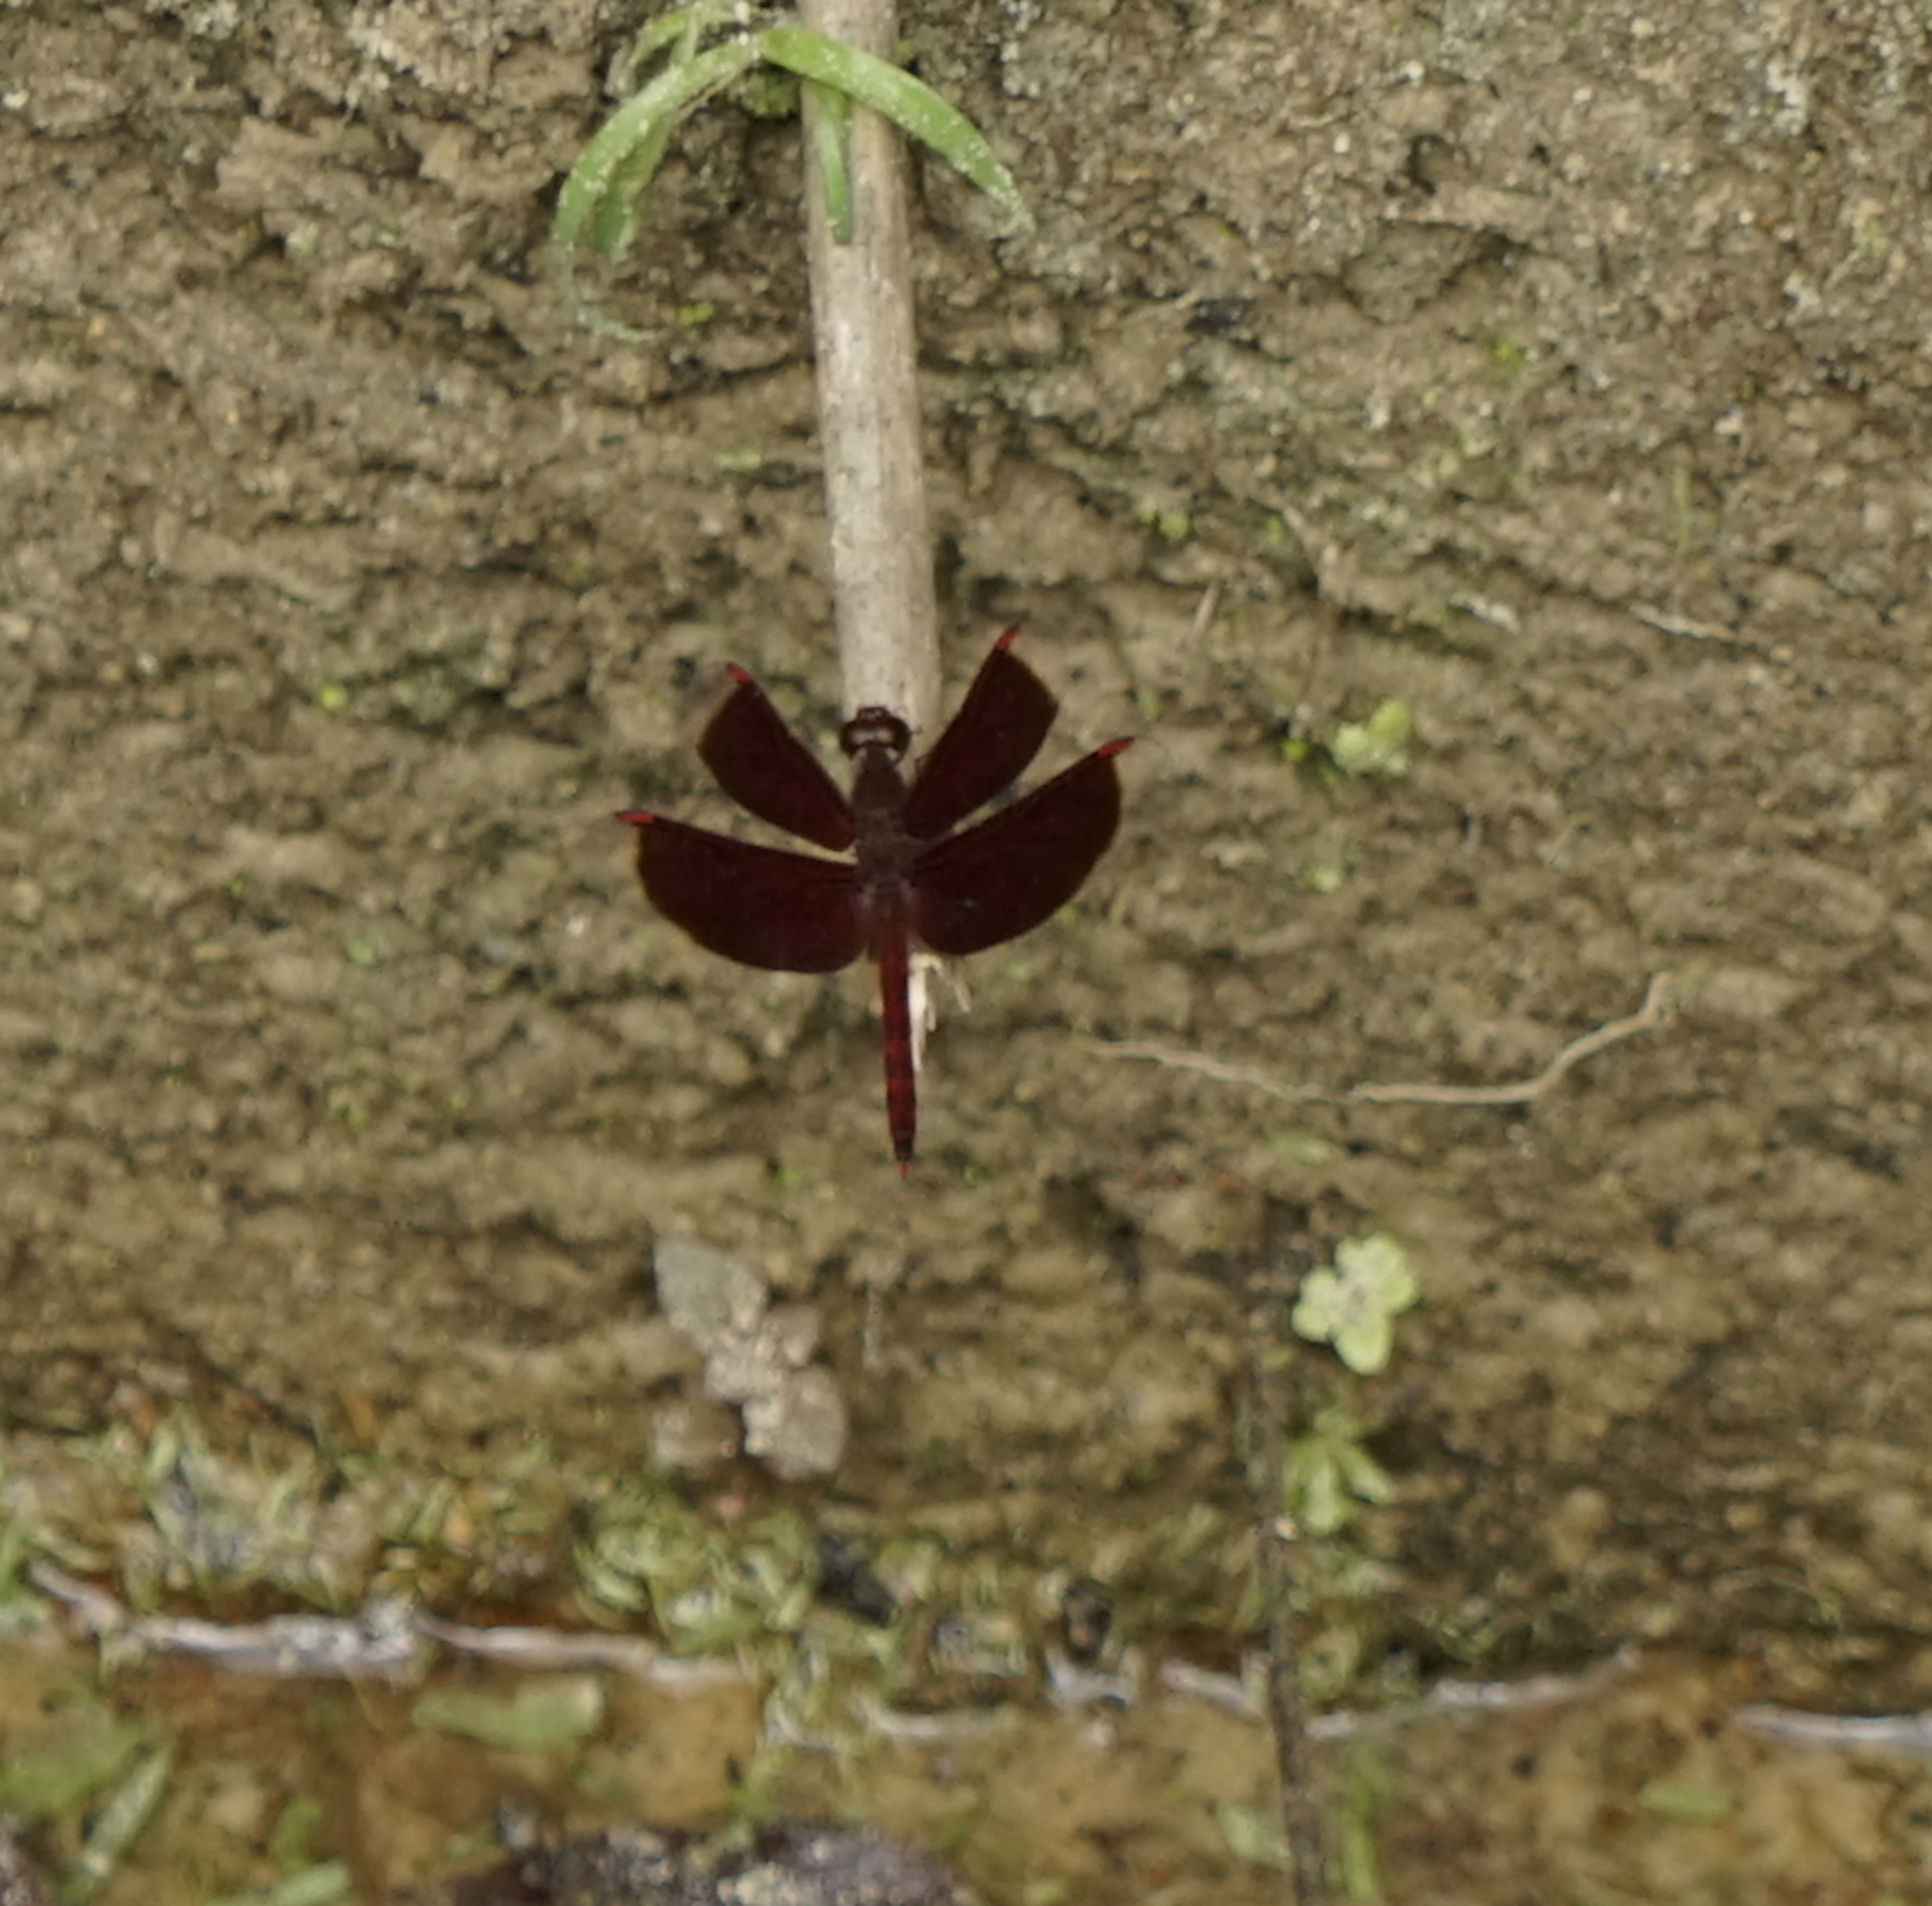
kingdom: Animalia
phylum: Arthropoda
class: Insecta
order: Odonata
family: Libellulidae
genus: Neurothemis
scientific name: Neurothemis fluctuans
